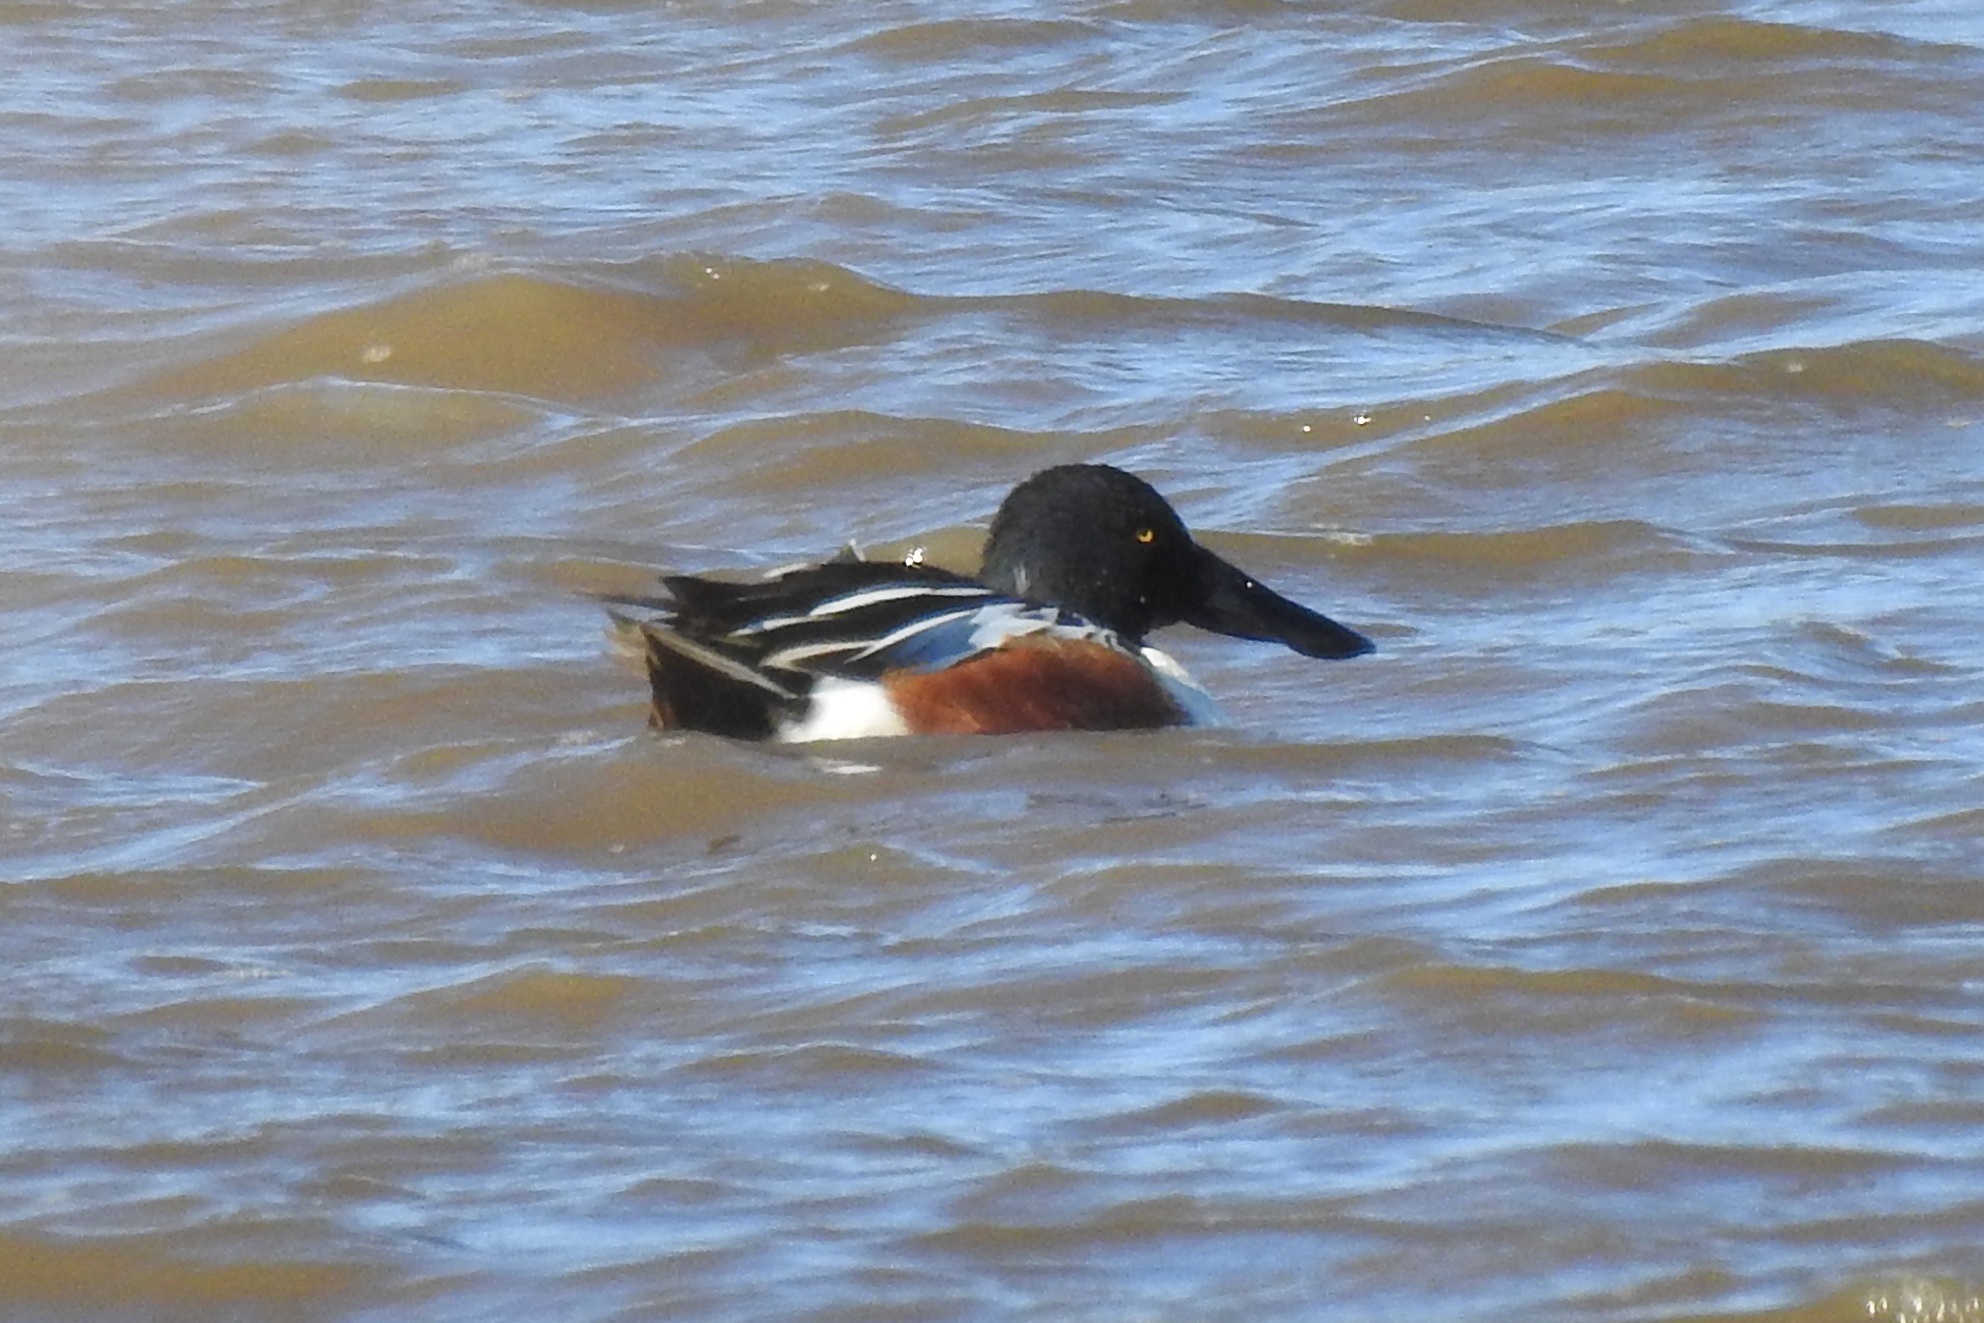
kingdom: Animalia
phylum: Chordata
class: Aves
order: Anseriformes
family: Anatidae
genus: Spatula
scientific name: Spatula clypeata
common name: Northern shoveler
